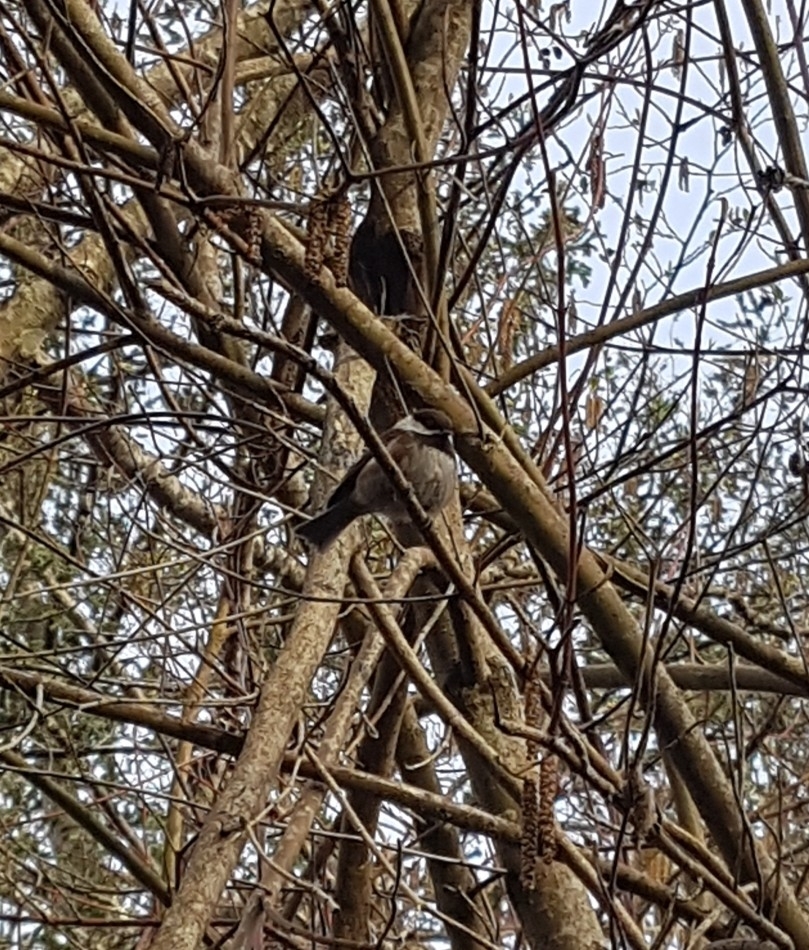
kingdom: Animalia
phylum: Chordata
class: Aves
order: Passeriformes
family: Paridae
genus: Poecile
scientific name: Poecile rufescens
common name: Chestnut-backed chickadee
